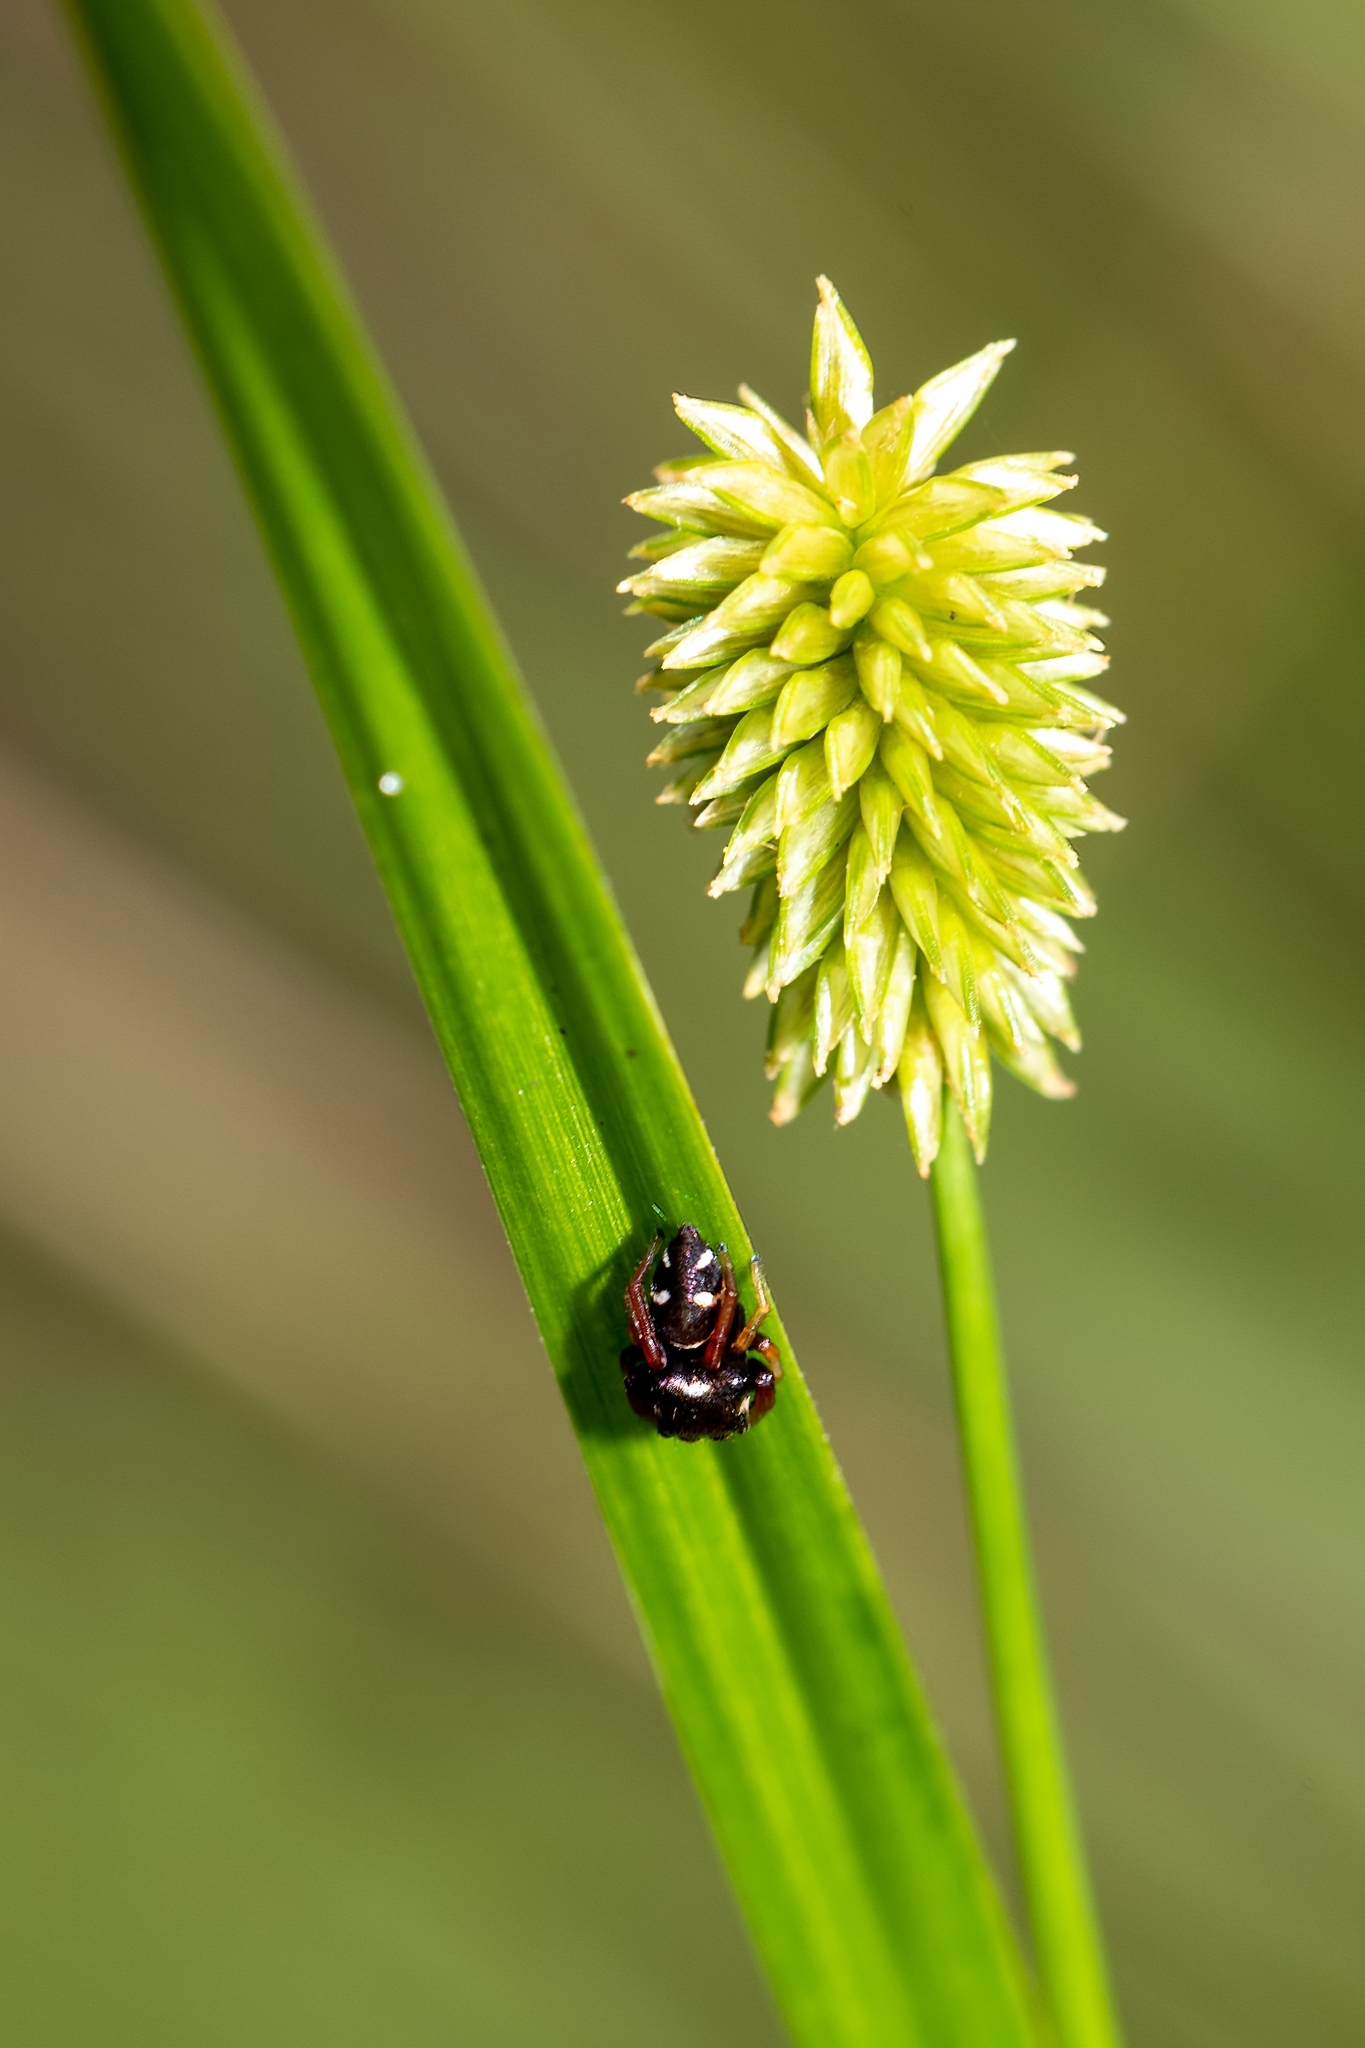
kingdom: Animalia
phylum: Arthropoda
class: Arachnida
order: Araneae
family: Salticidae
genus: Zygoballus
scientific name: Zygoballus sexpunctatus
